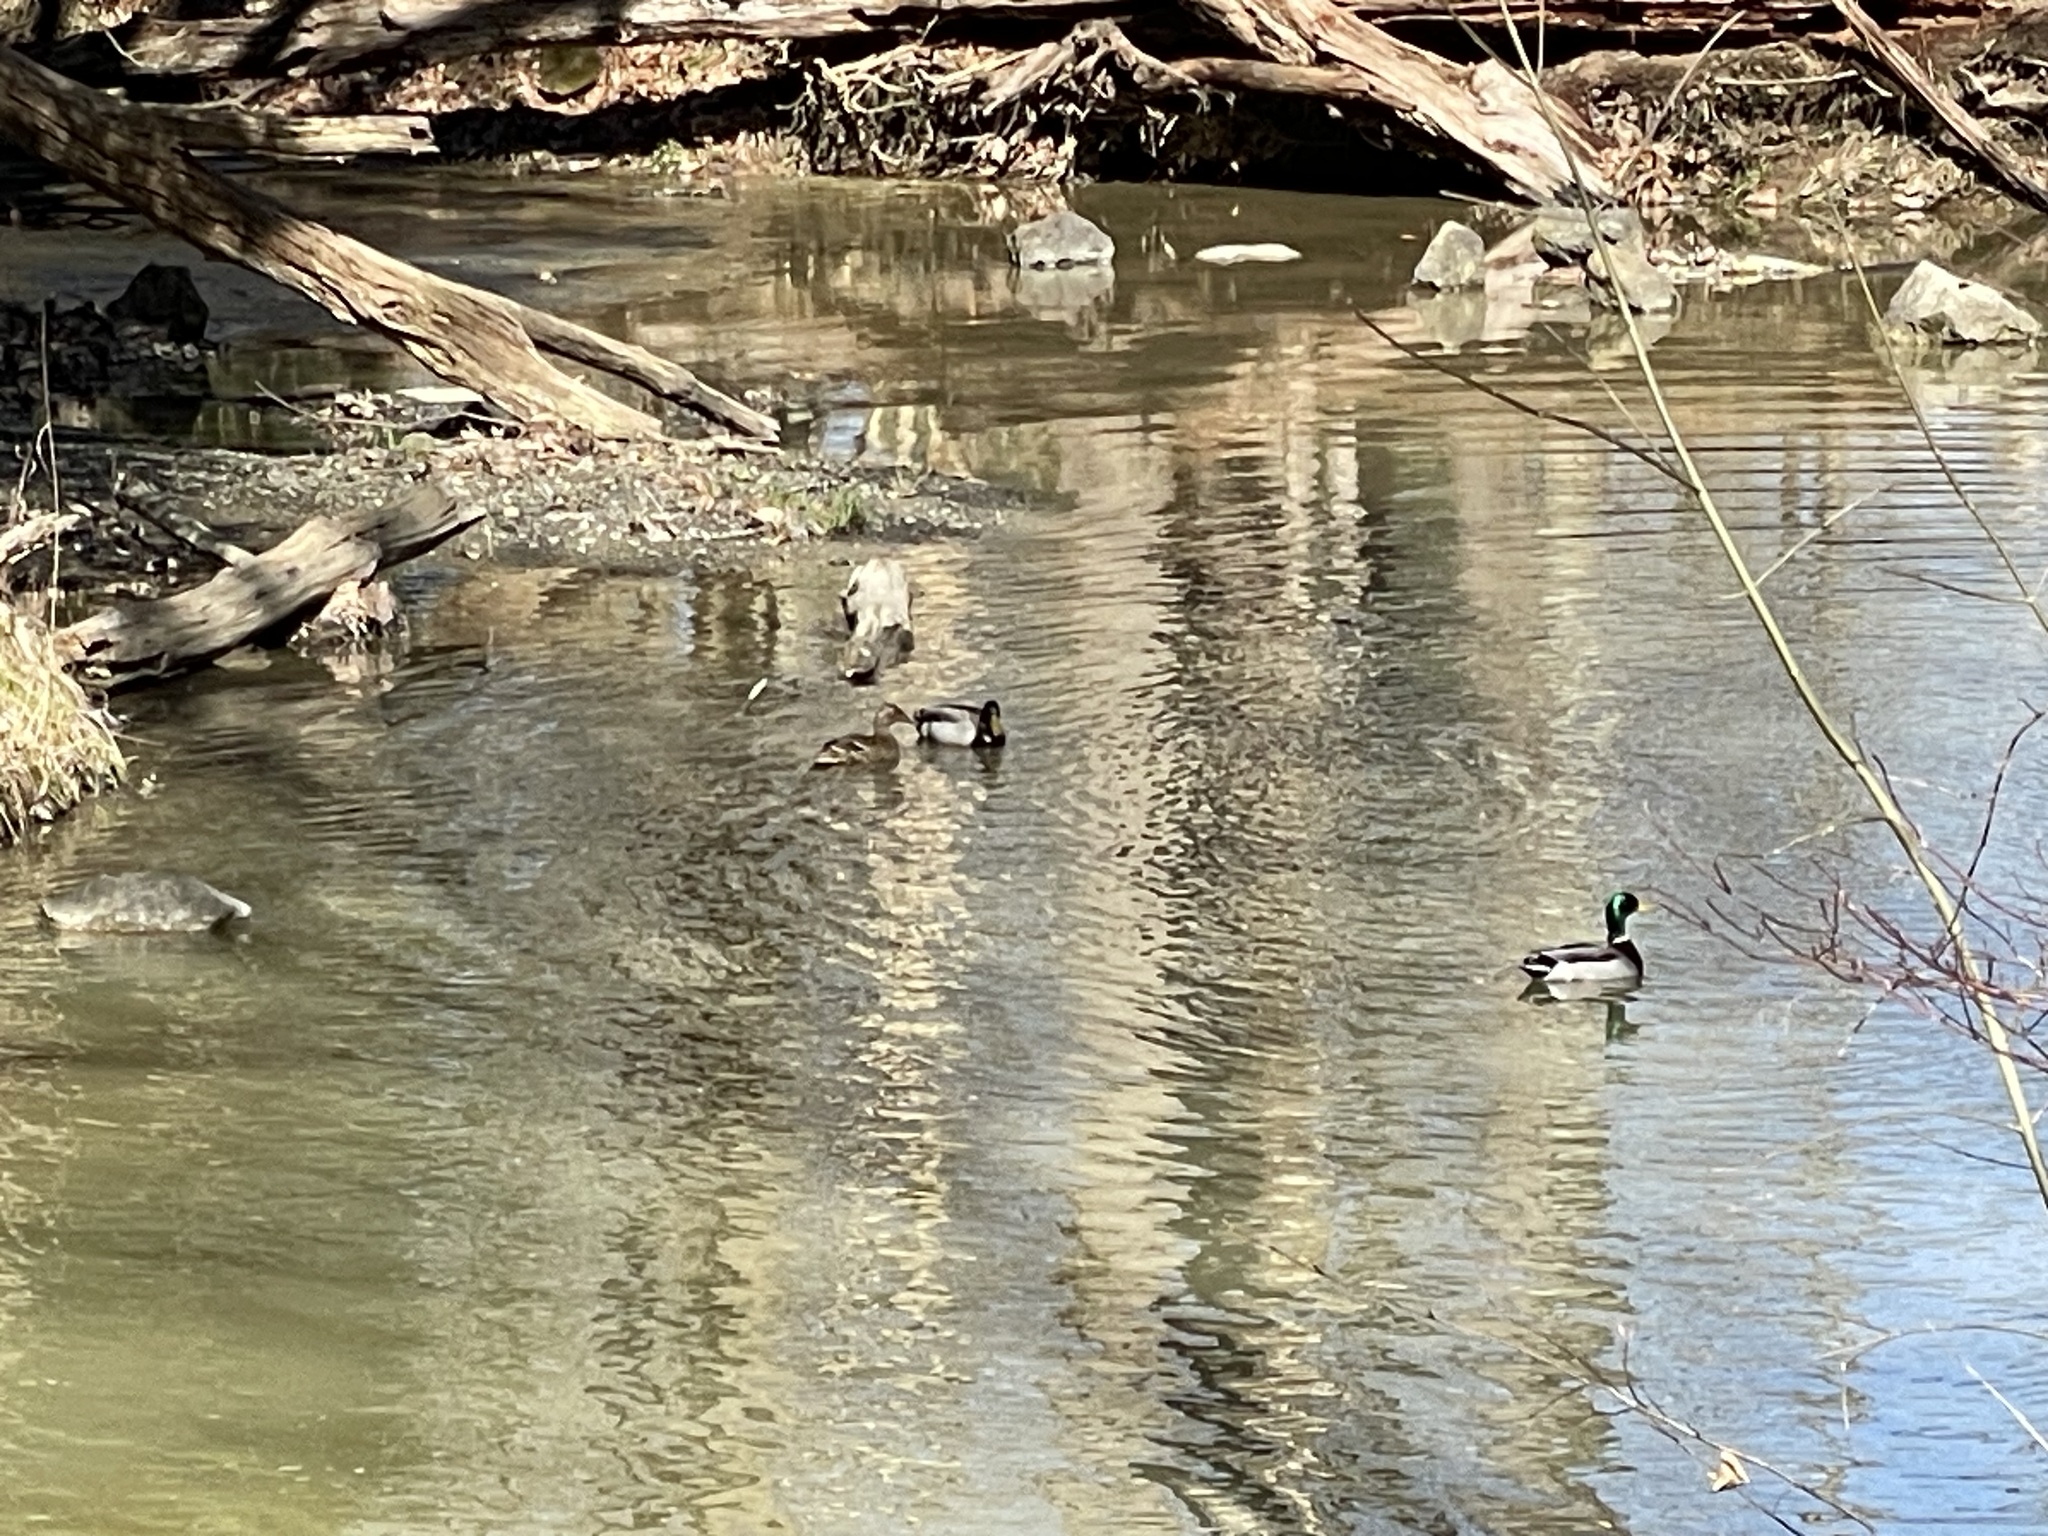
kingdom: Animalia
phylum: Chordata
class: Aves
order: Anseriformes
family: Anatidae
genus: Anas
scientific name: Anas platyrhynchos
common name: Mallard
